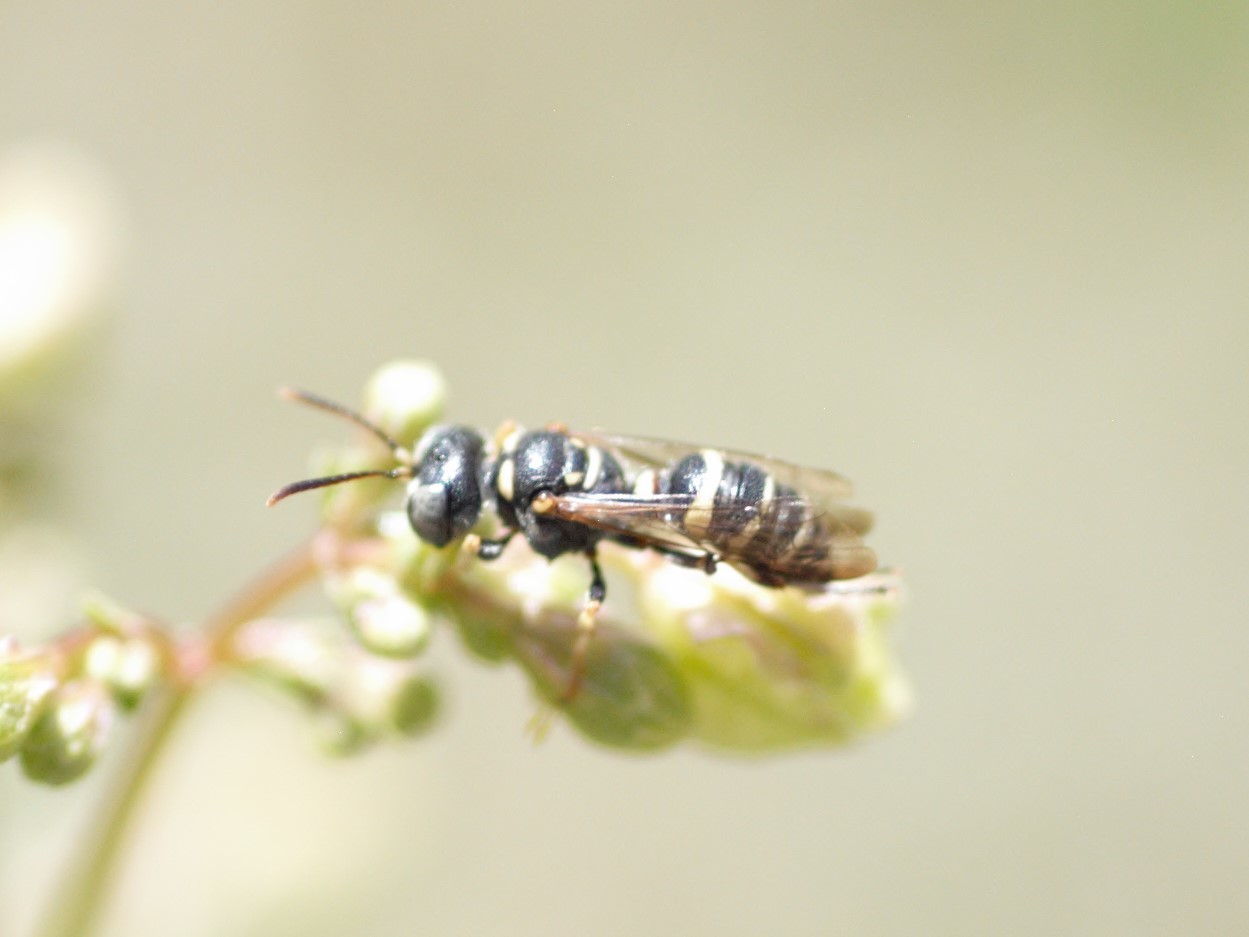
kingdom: Animalia
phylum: Arthropoda
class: Insecta
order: Hymenoptera
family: Crabronidae
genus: Cerceris
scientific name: Cerceris convergens
